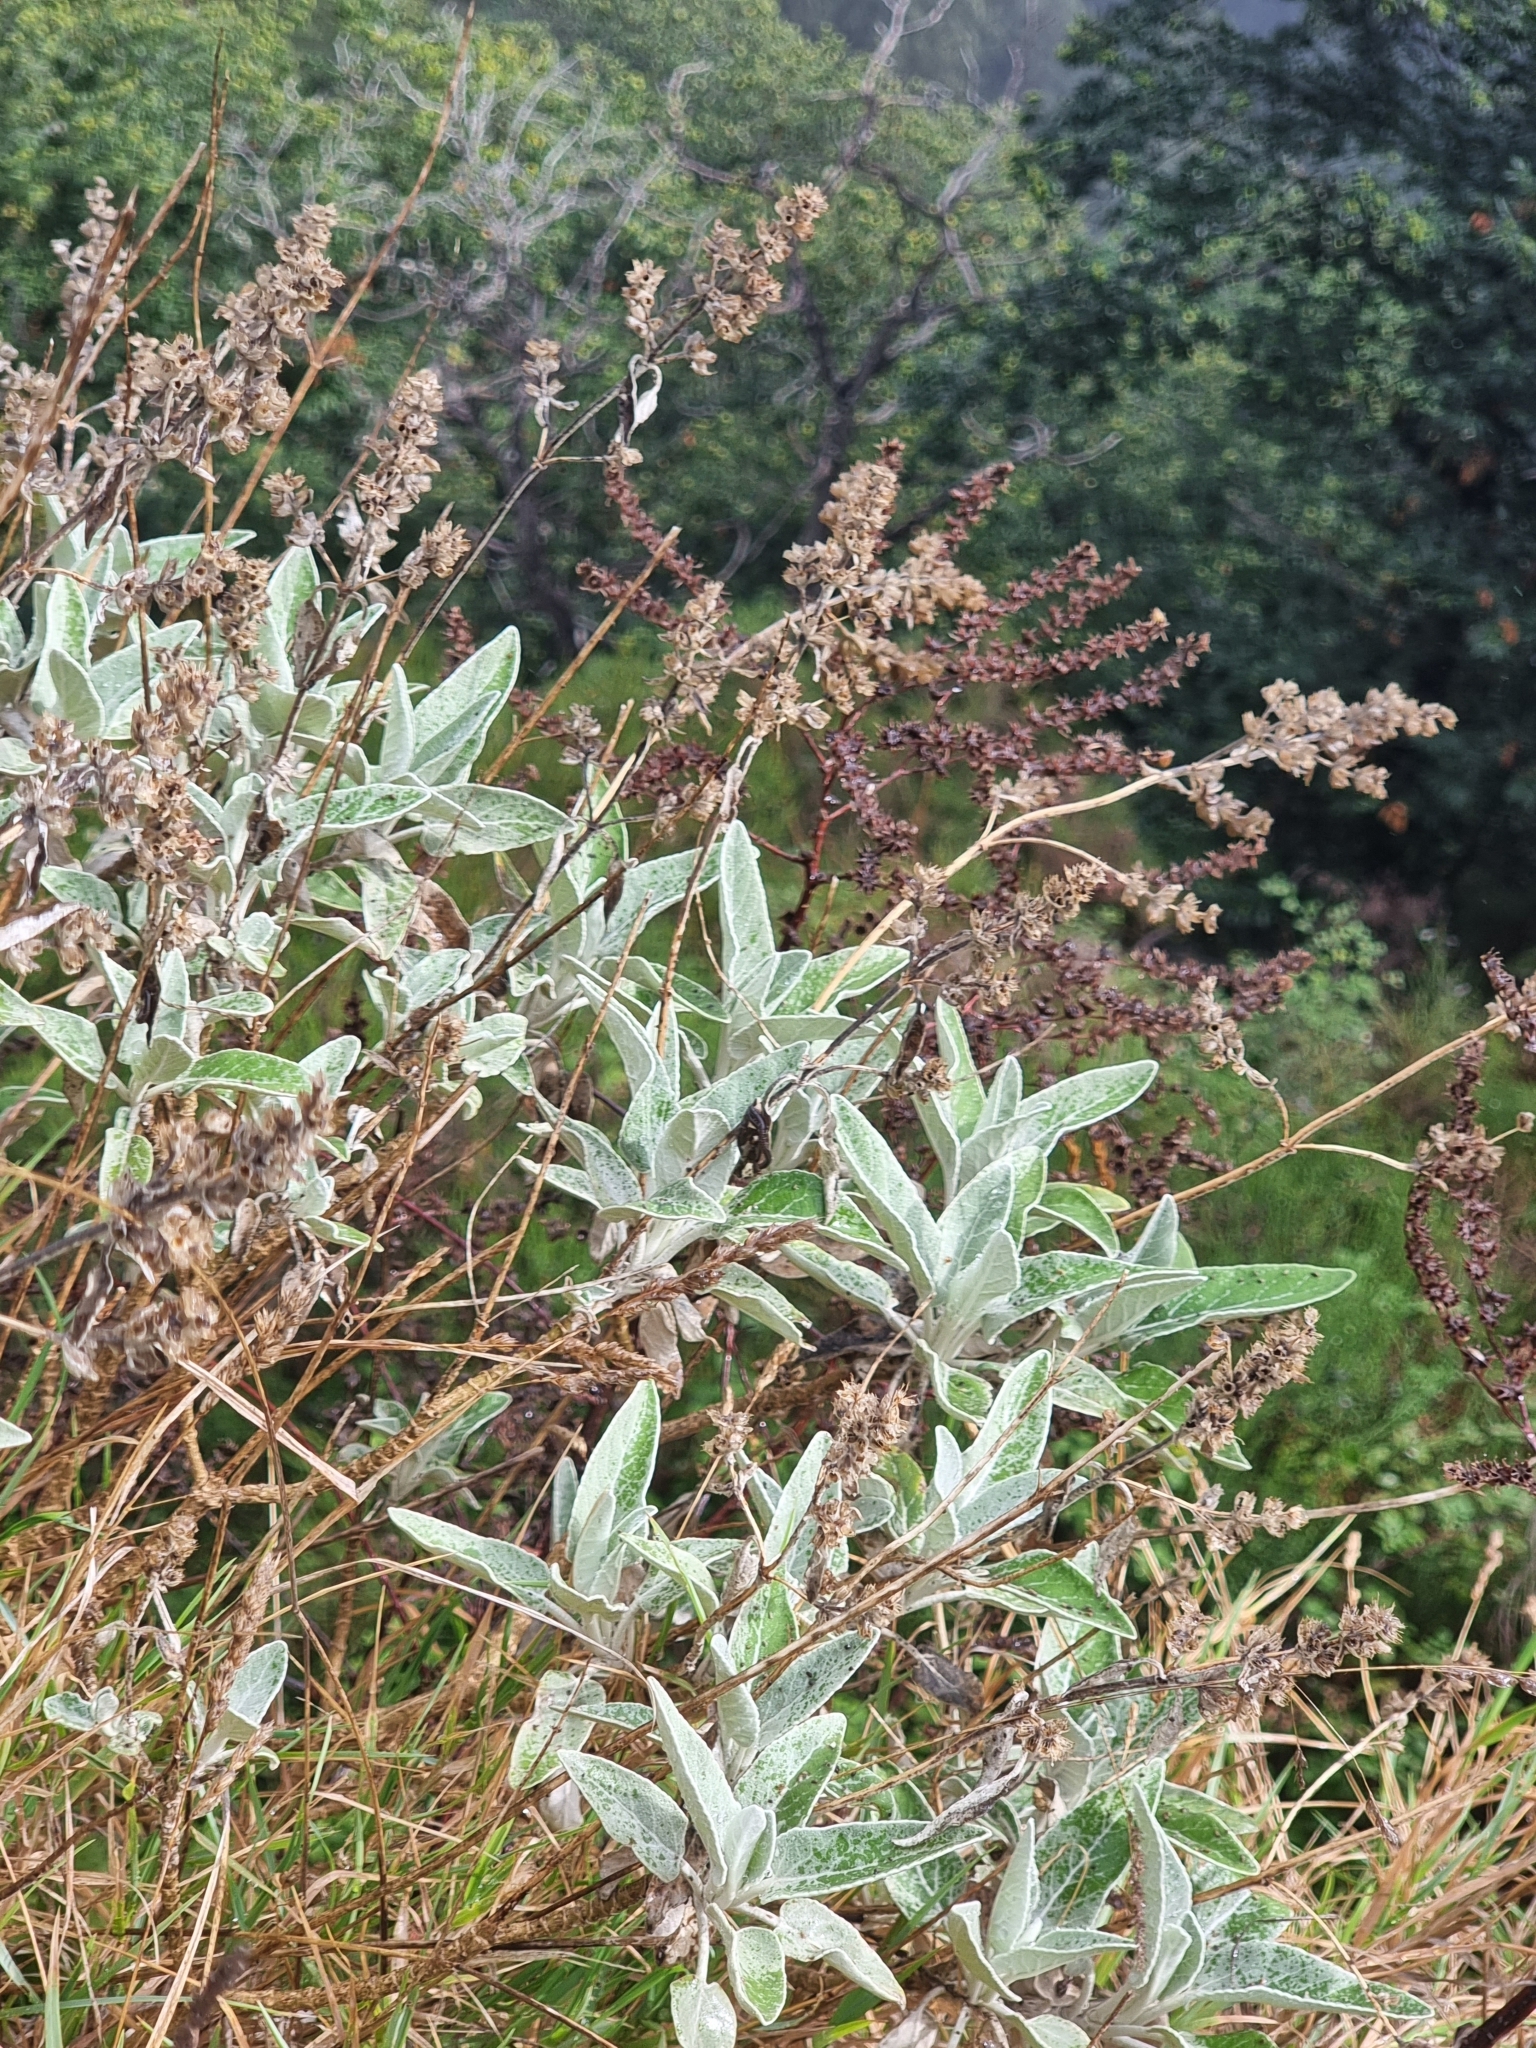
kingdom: Plantae
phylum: Tracheophyta
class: Magnoliopsida
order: Lamiales
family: Lamiaceae
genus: Sideritis
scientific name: Sideritis candicans
